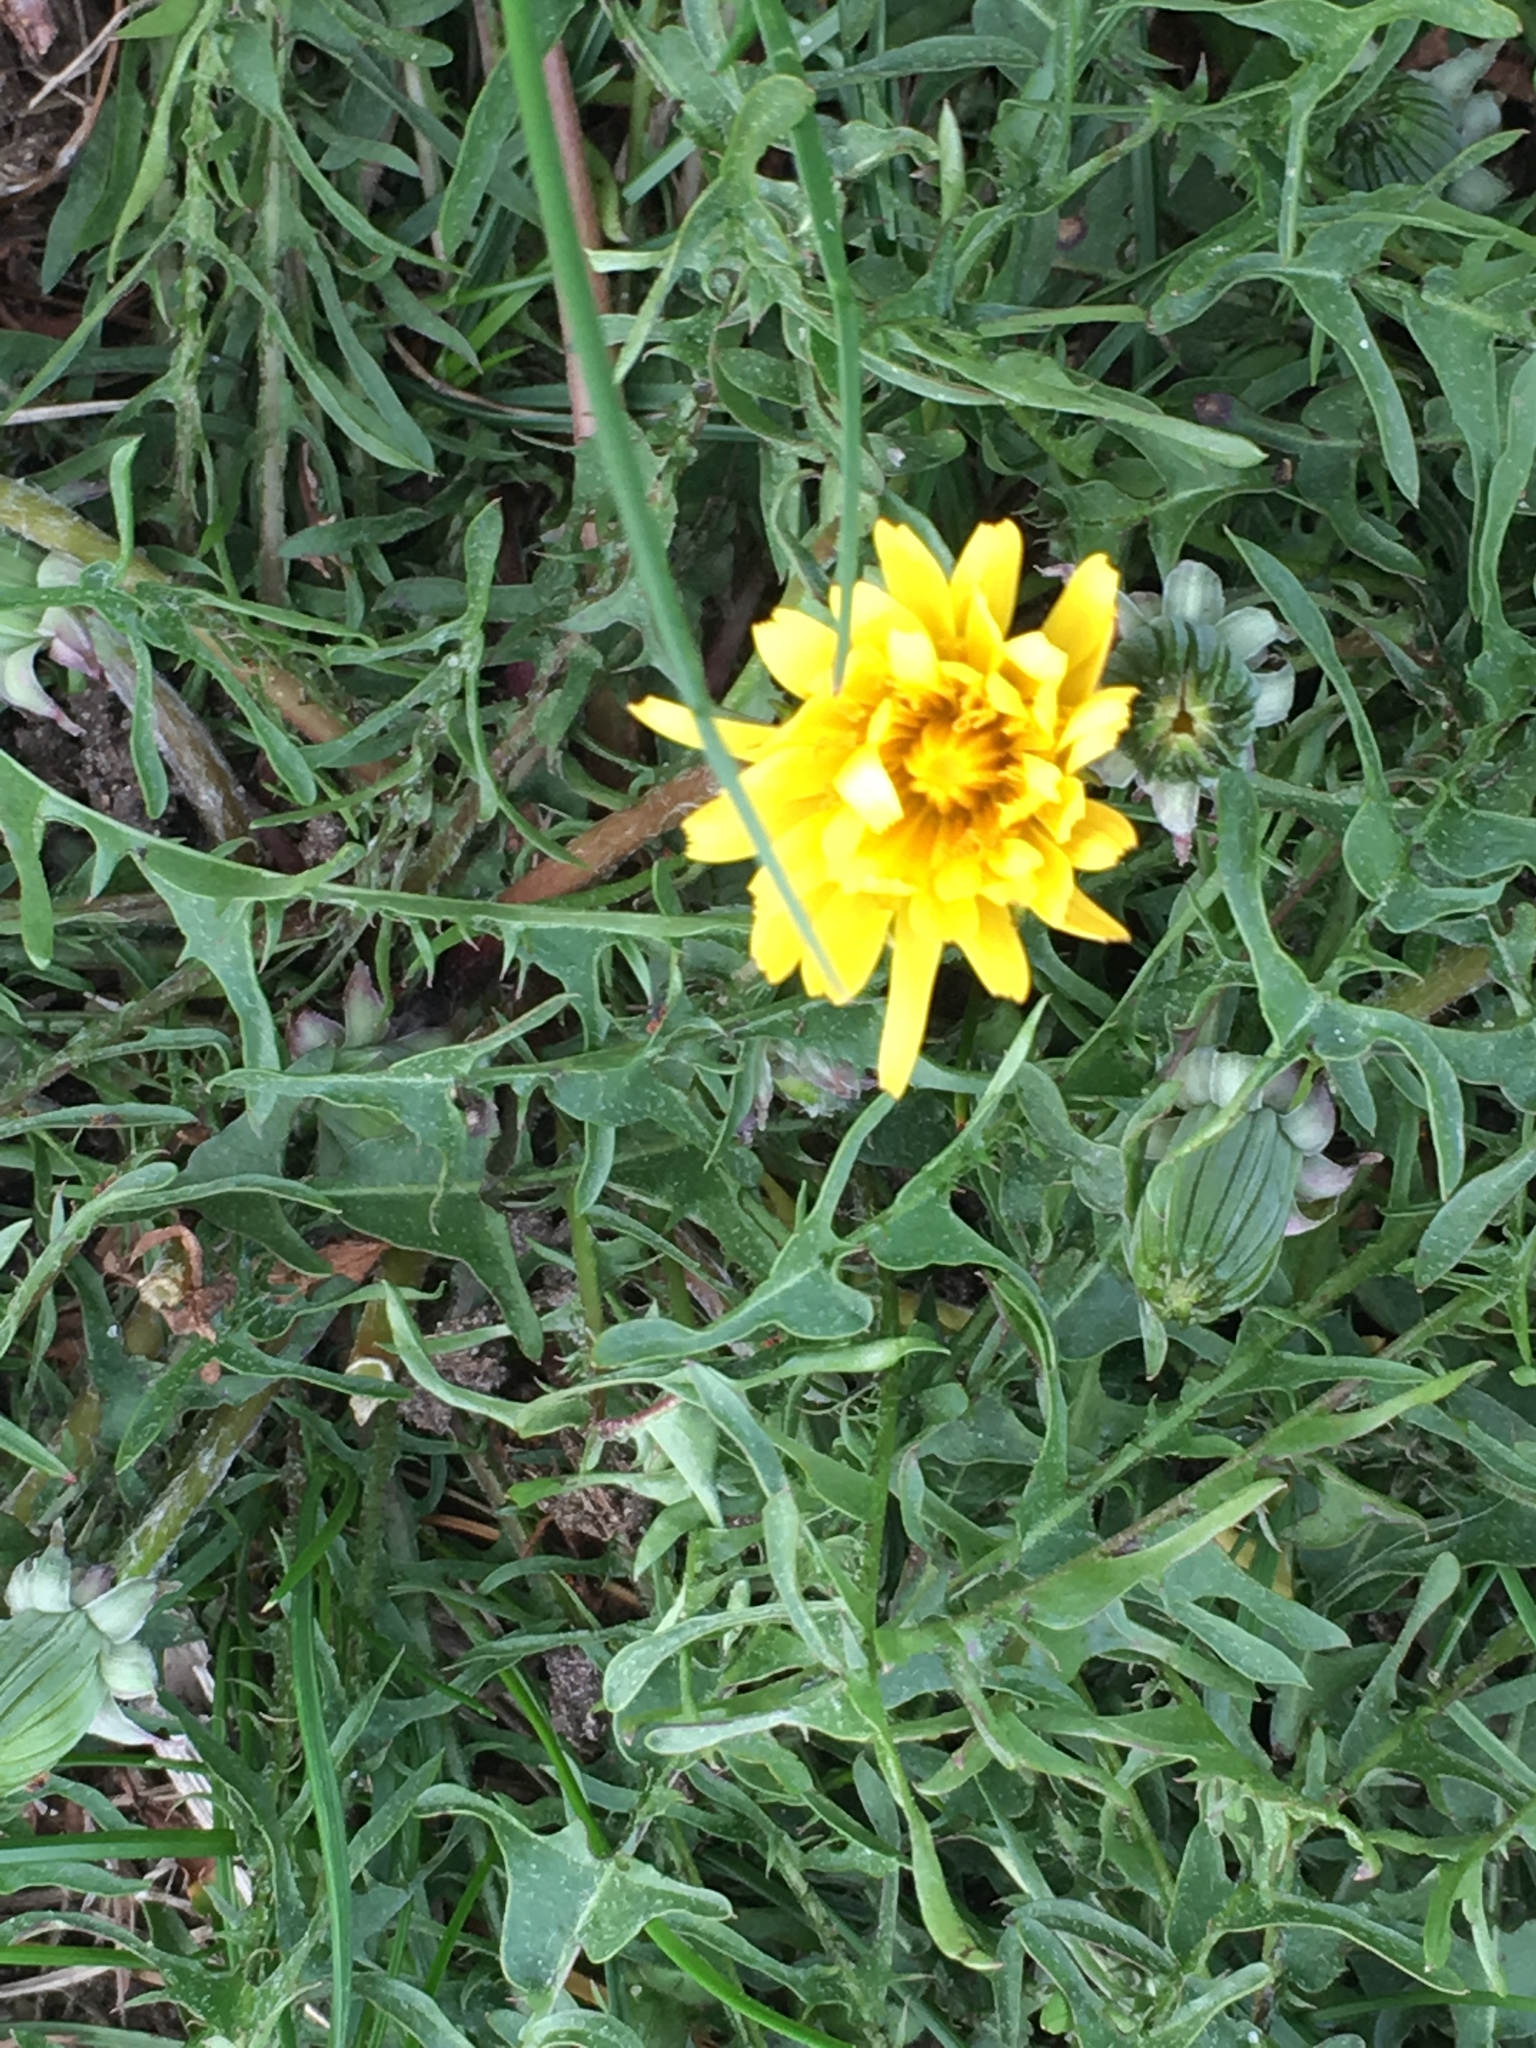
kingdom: Plantae
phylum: Tracheophyta
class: Magnoliopsida
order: Asterales
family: Asteraceae
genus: Taraxacum
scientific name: Taraxacum officinale
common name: Common dandelion
